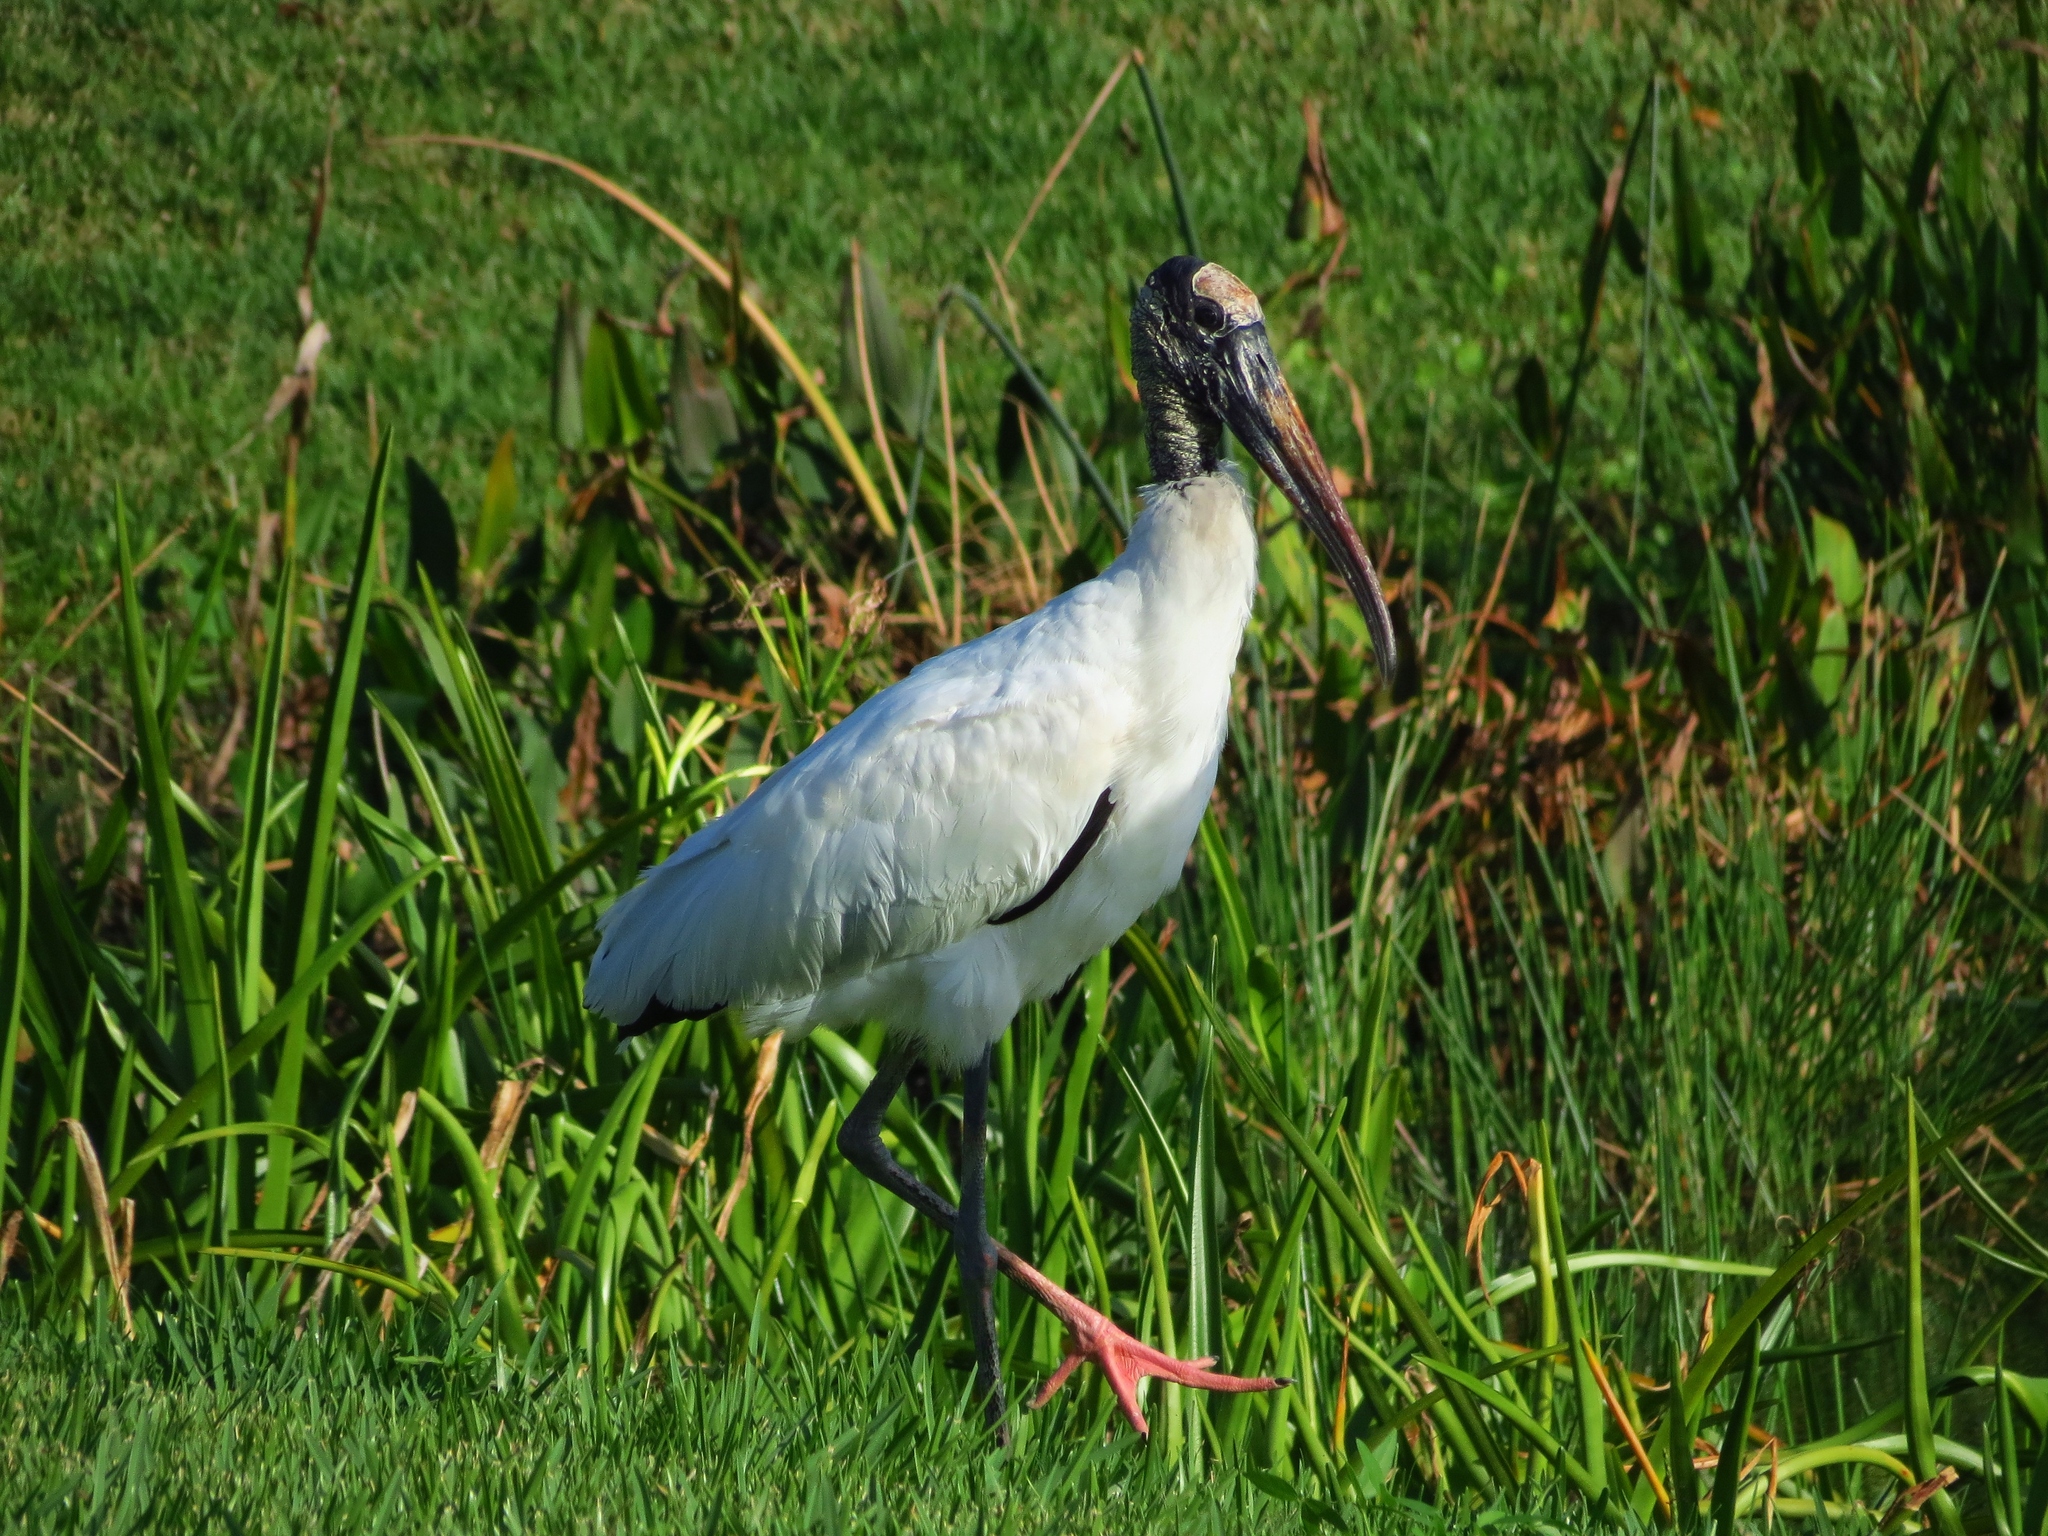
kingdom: Animalia
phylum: Chordata
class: Aves
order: Ciconiiformes
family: Ciconiidae
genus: Mycteria
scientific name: Mycteria americana
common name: Wood stork
